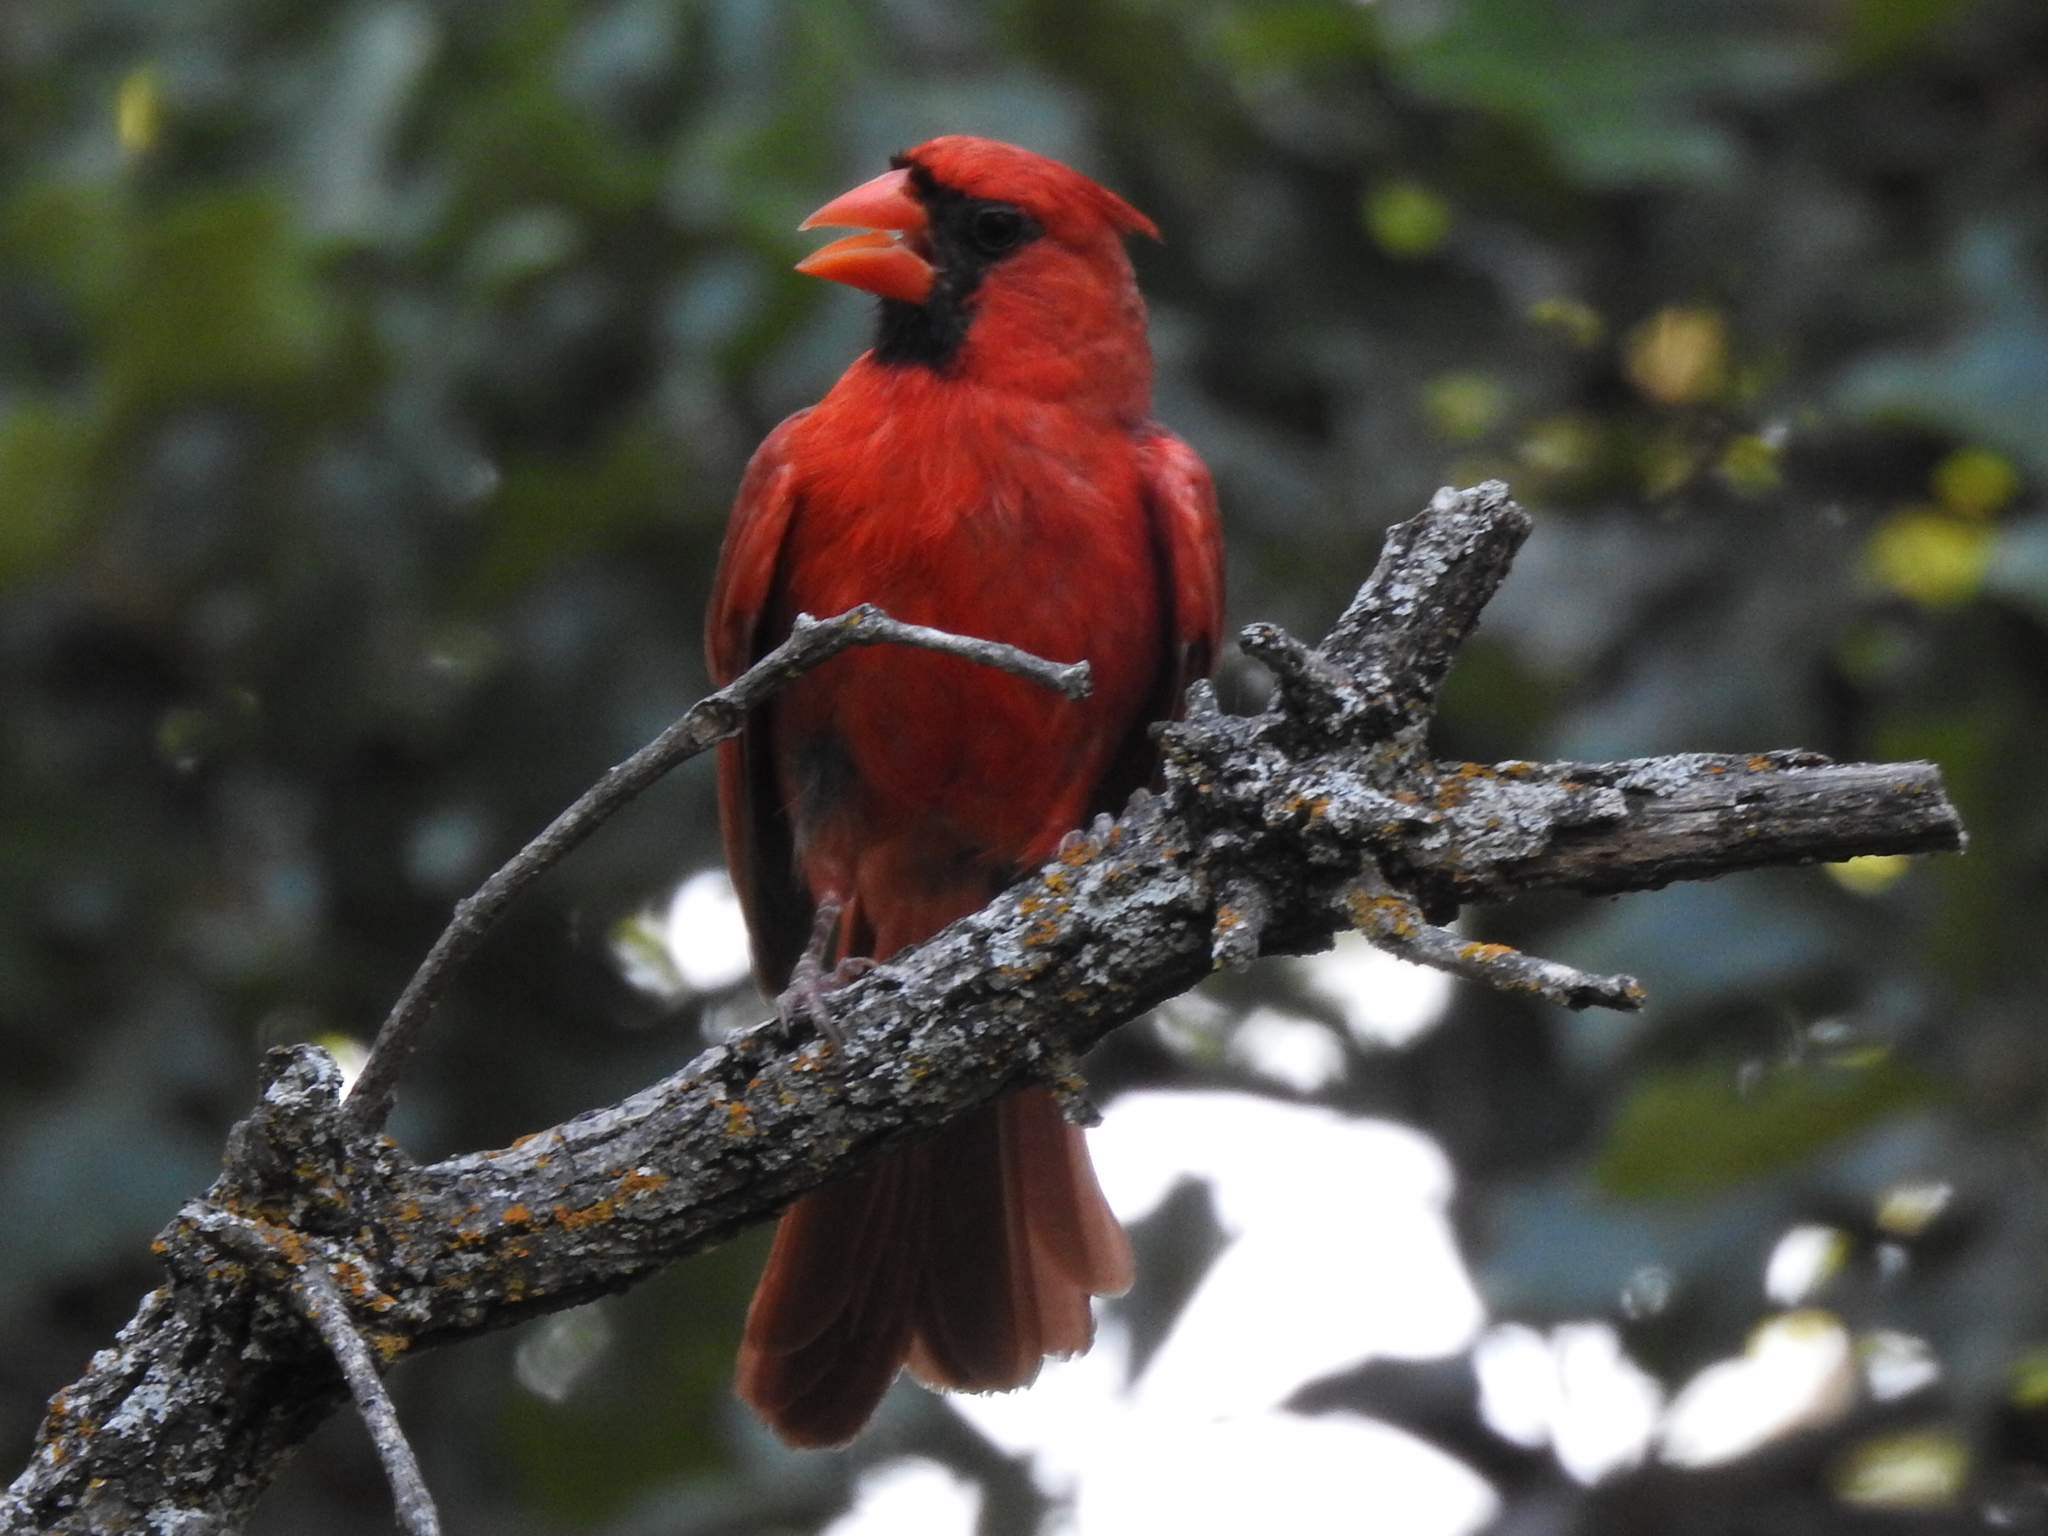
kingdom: Animalia
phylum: Chordata
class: Aves
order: Passeriformes
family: Cardinalidae
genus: Cardinalis
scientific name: Cardinalis cardinalis
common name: Northern cardinal
